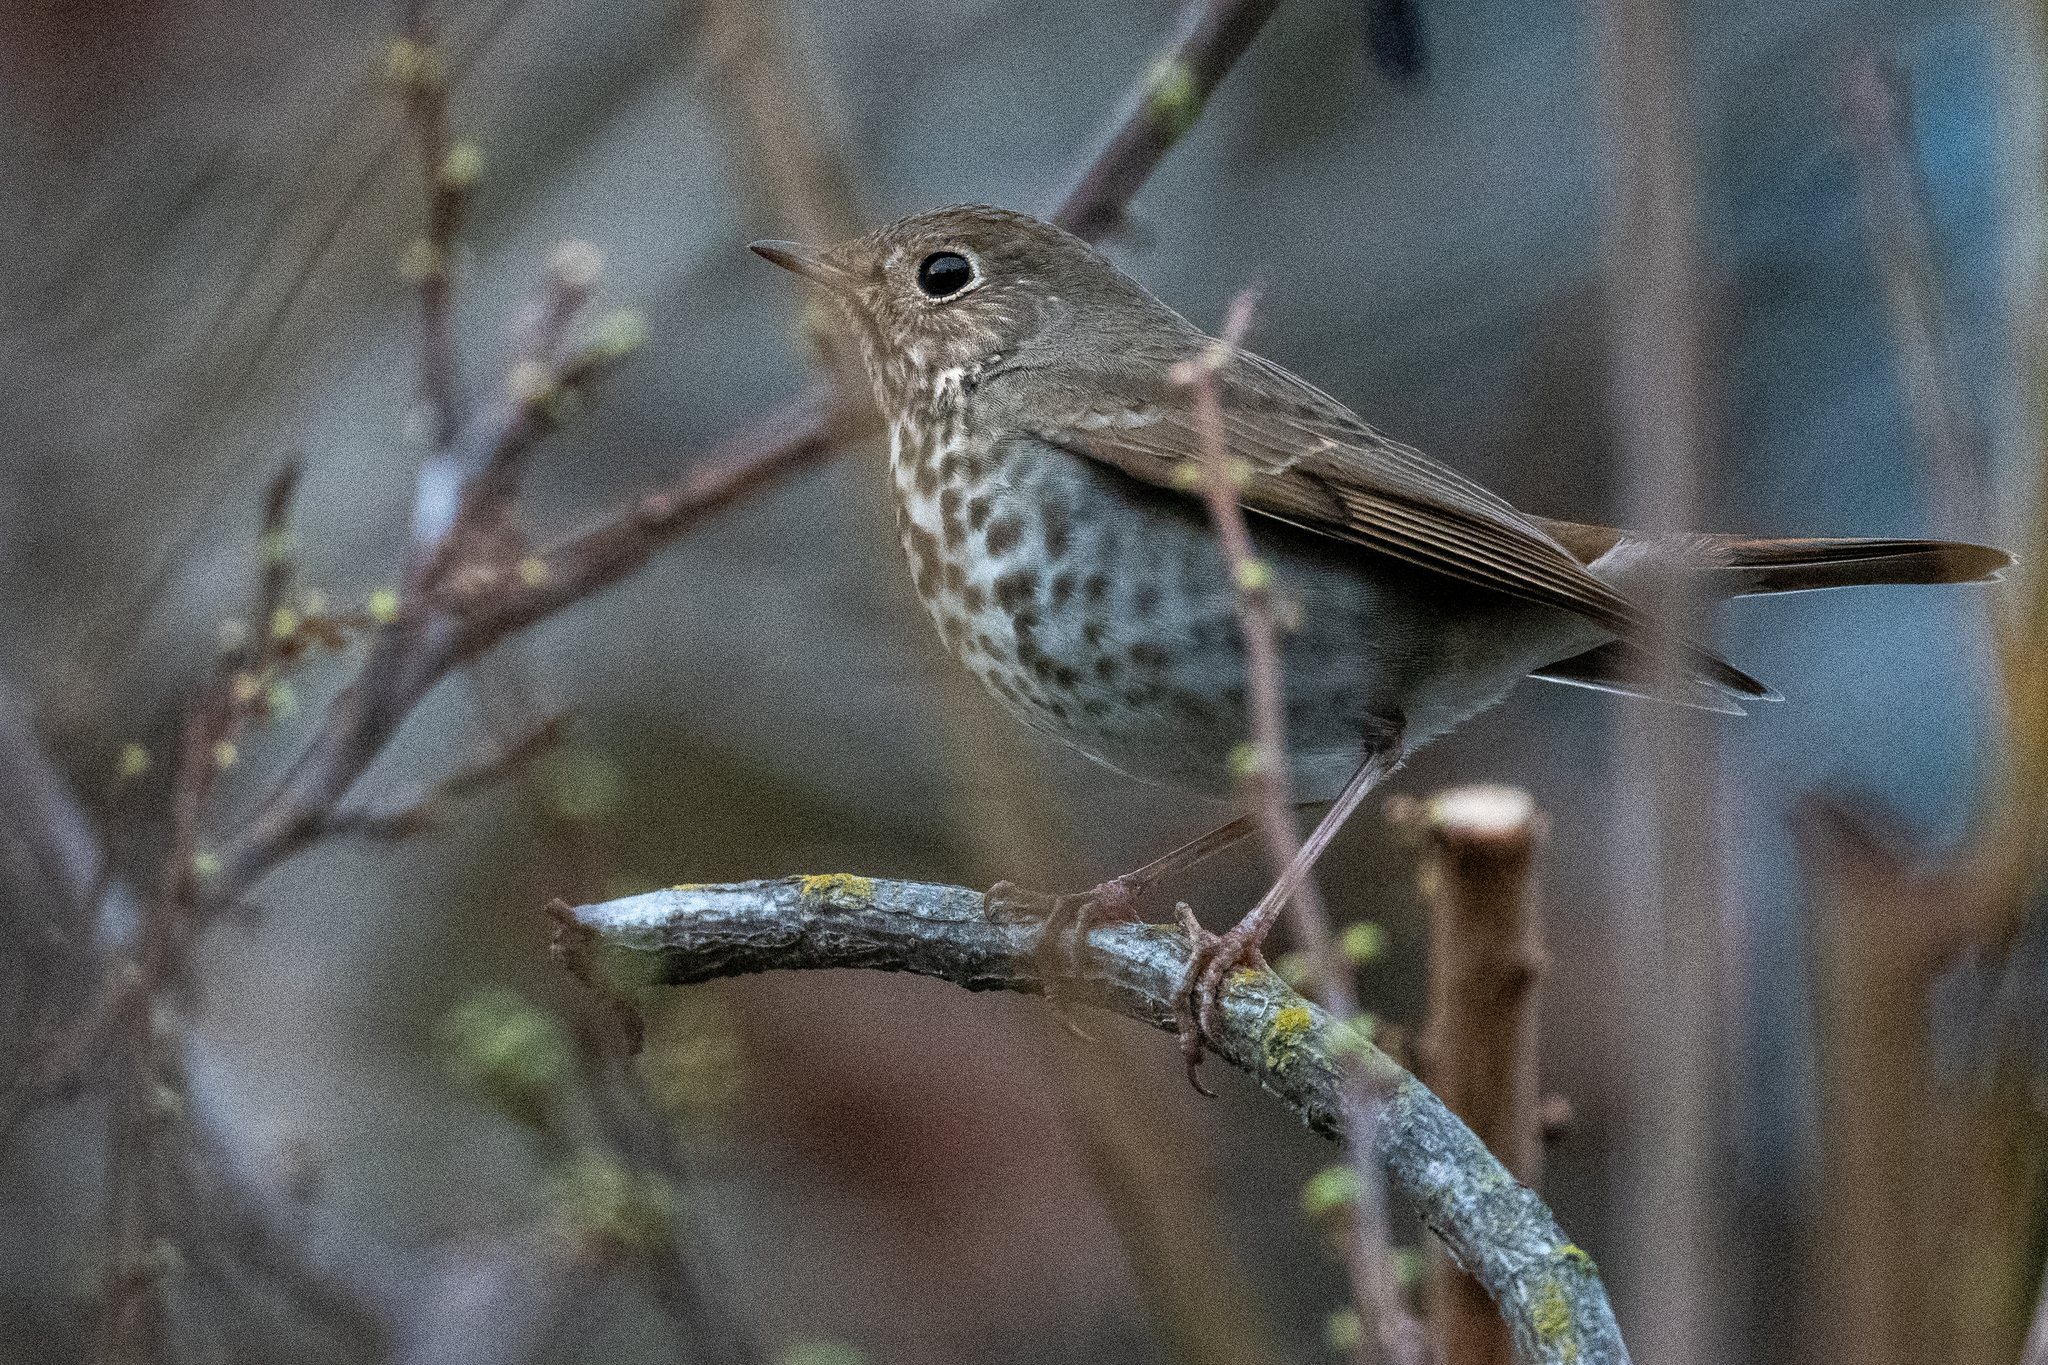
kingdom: Animalia
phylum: Chordata
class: Aves
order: Passeriformes
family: Turdidae
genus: Catharus
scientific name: Catharus guttatus
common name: Hermit thrush
